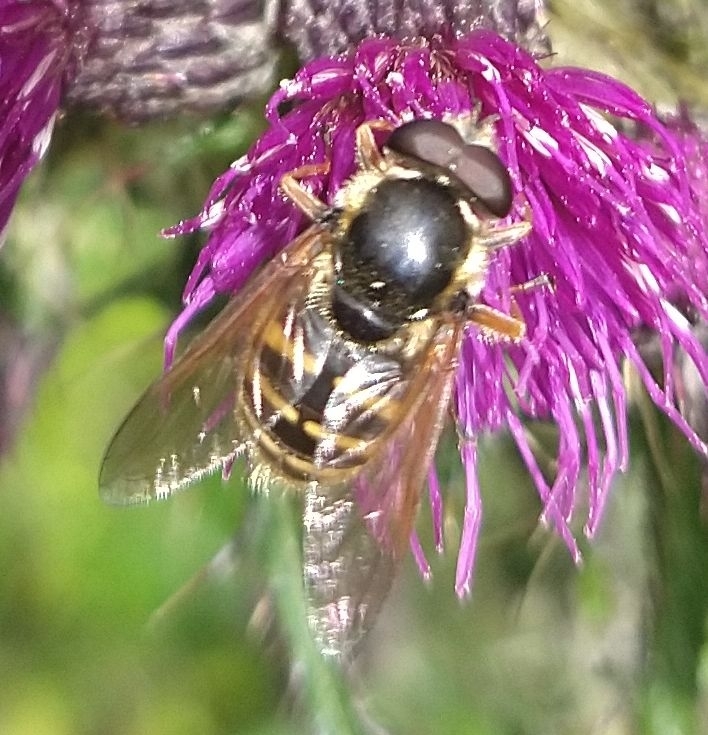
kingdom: Animalia
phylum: Arthropoda
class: Insecta
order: Diptera
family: Syrphidae
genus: Sericomyia
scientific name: Sericomyia silentis
